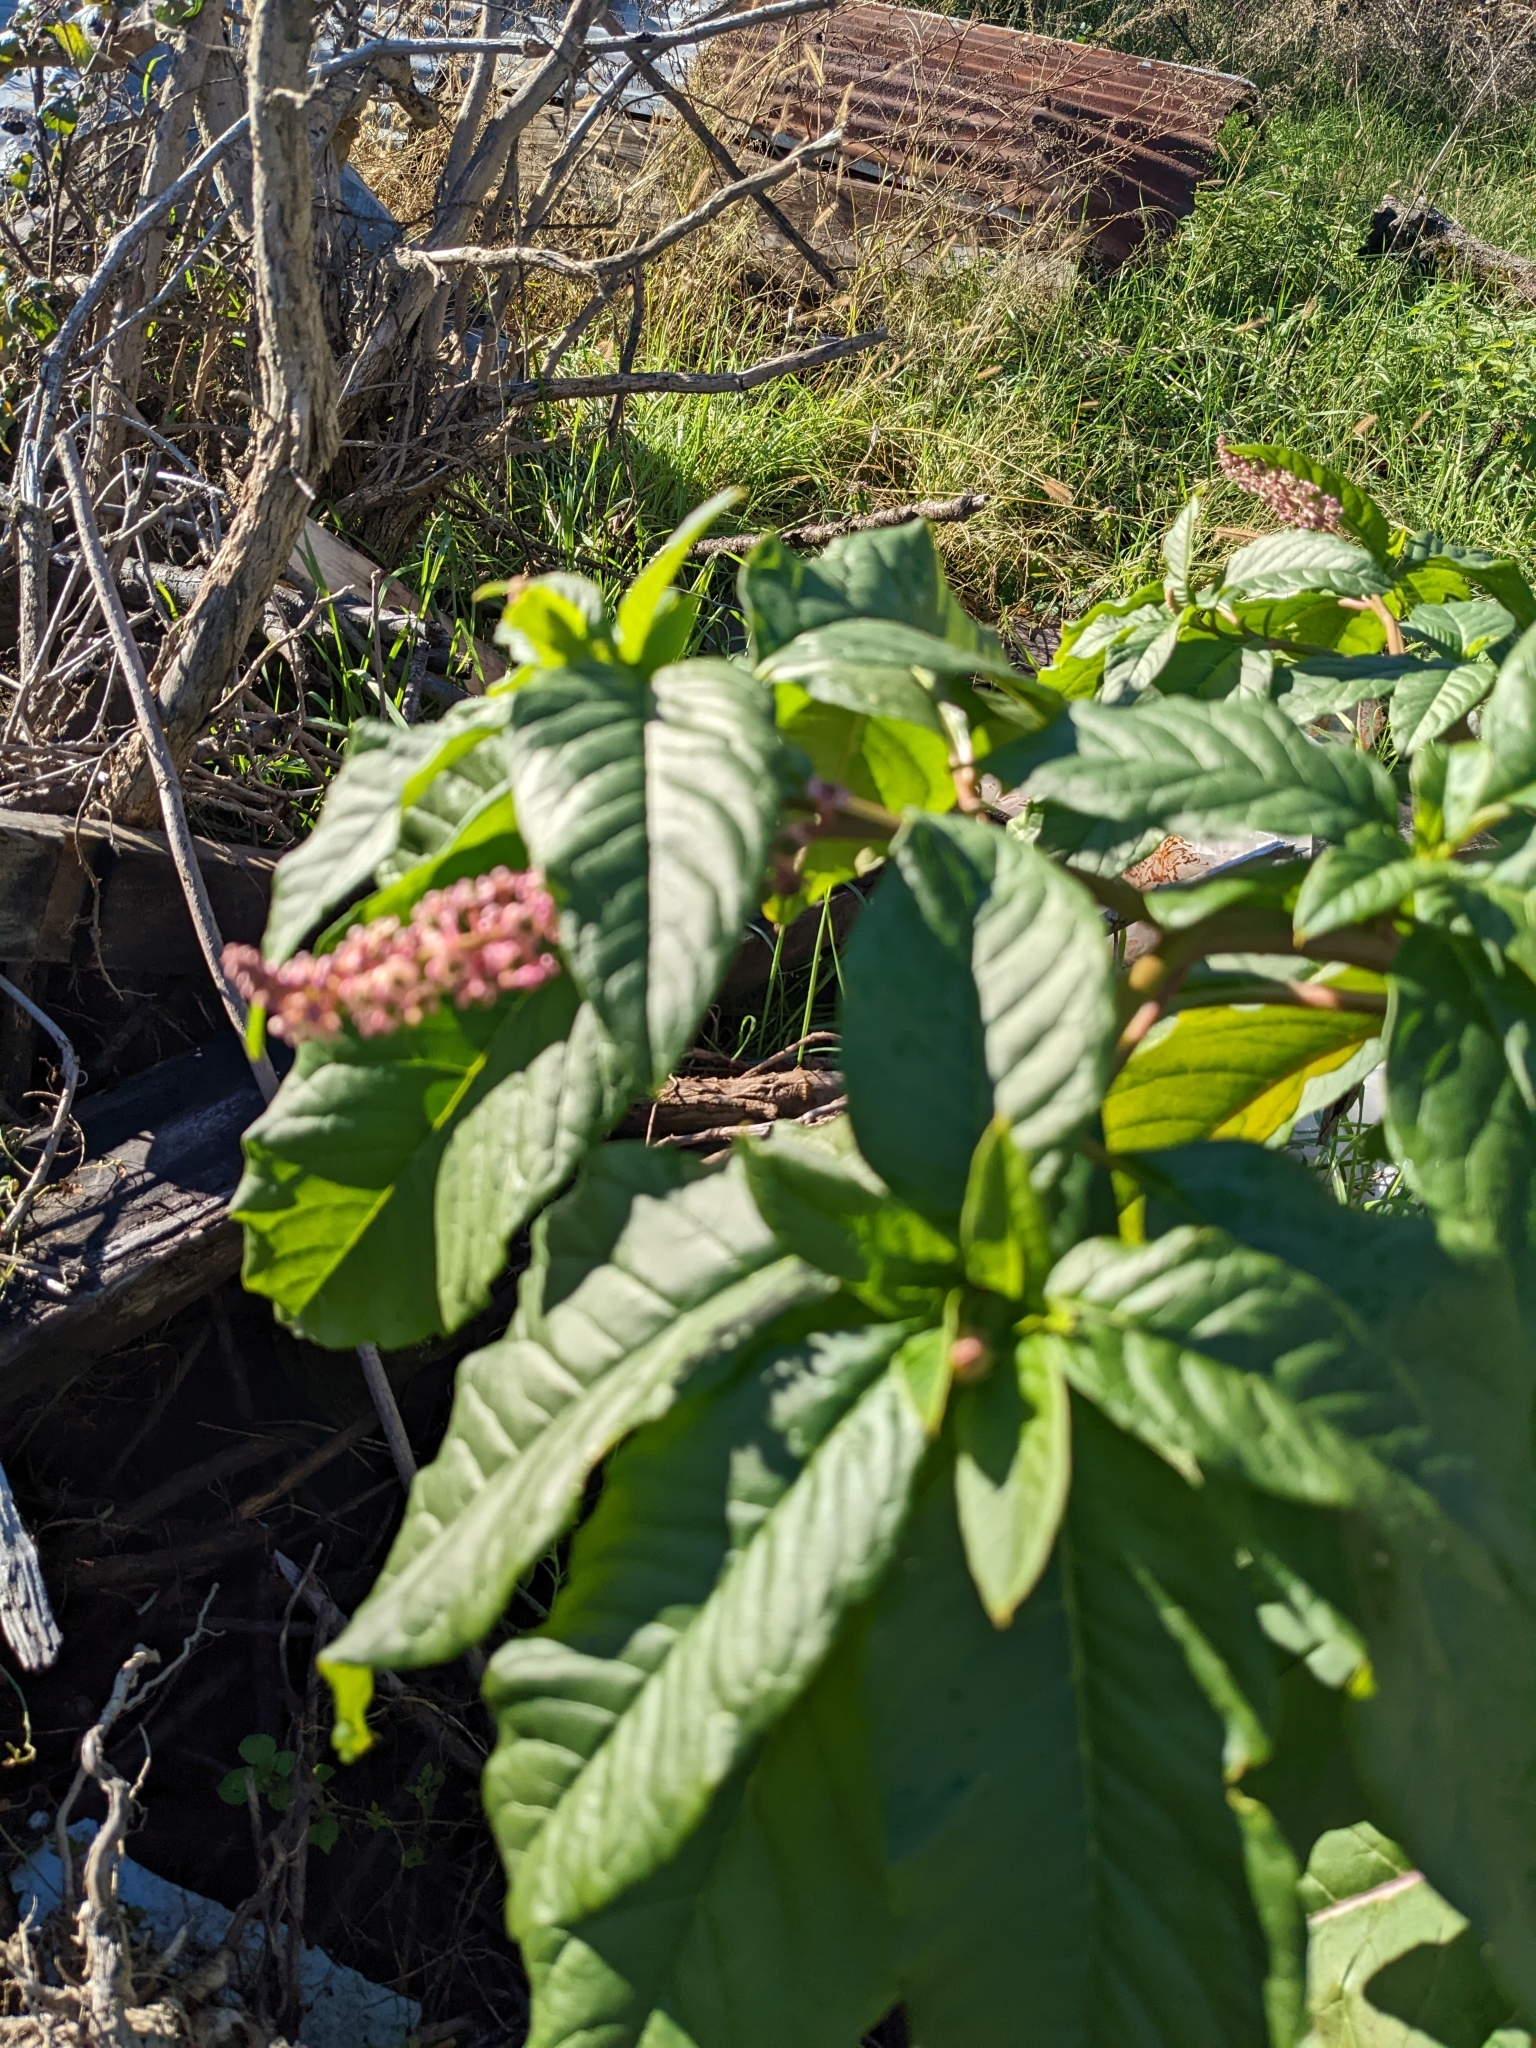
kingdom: Plantae
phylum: Tracheophyta
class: Magnoliopsida
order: Caryophyllales
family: Phytolaccaceae
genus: Phytolacca
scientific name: Phytolacca americana
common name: American pokeweed
